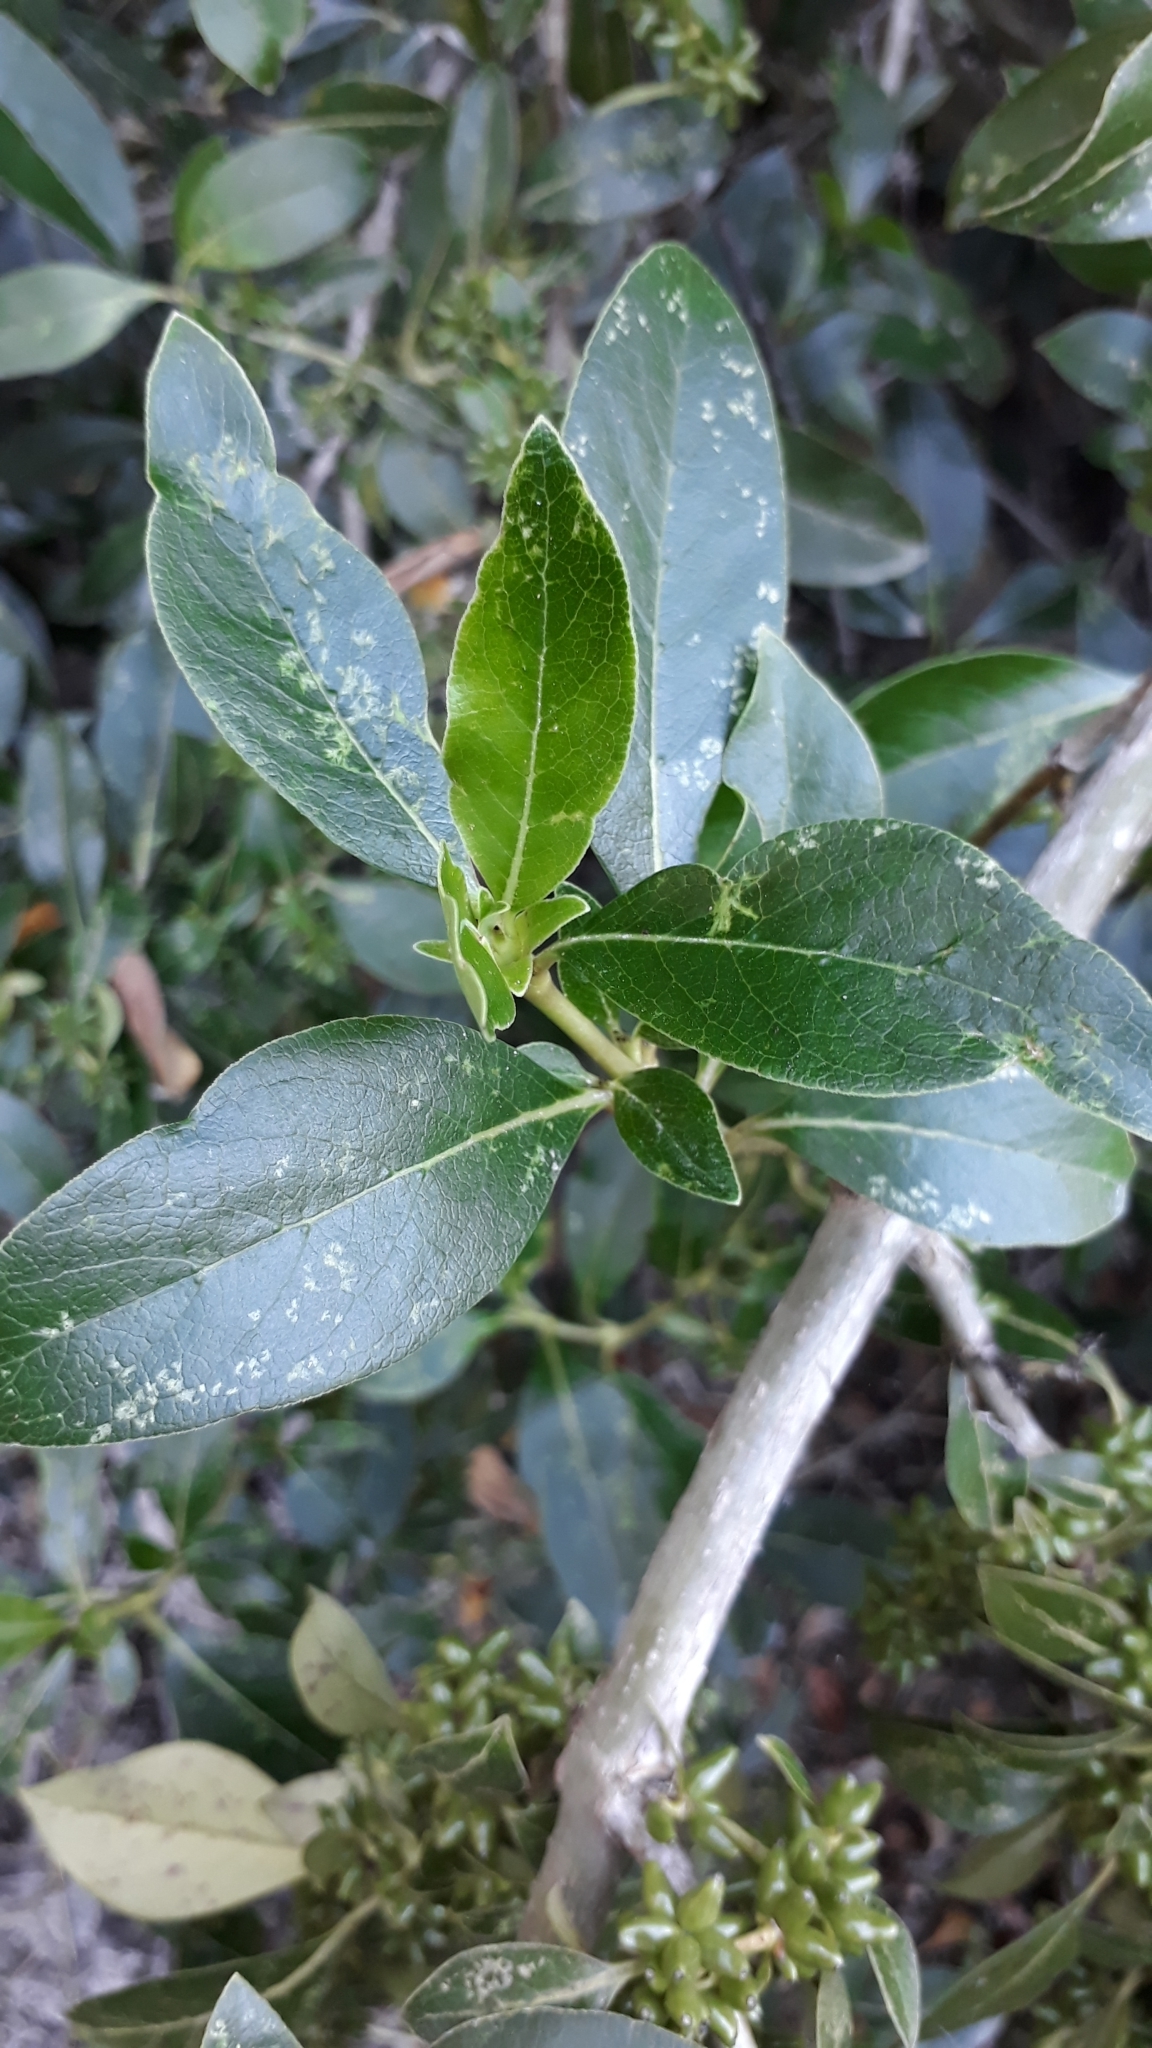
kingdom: Plantae
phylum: Tracheophyta
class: Magnoliopsida
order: Gentianales
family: Rubiaceae
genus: Coprosma
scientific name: Coprosma robusta
